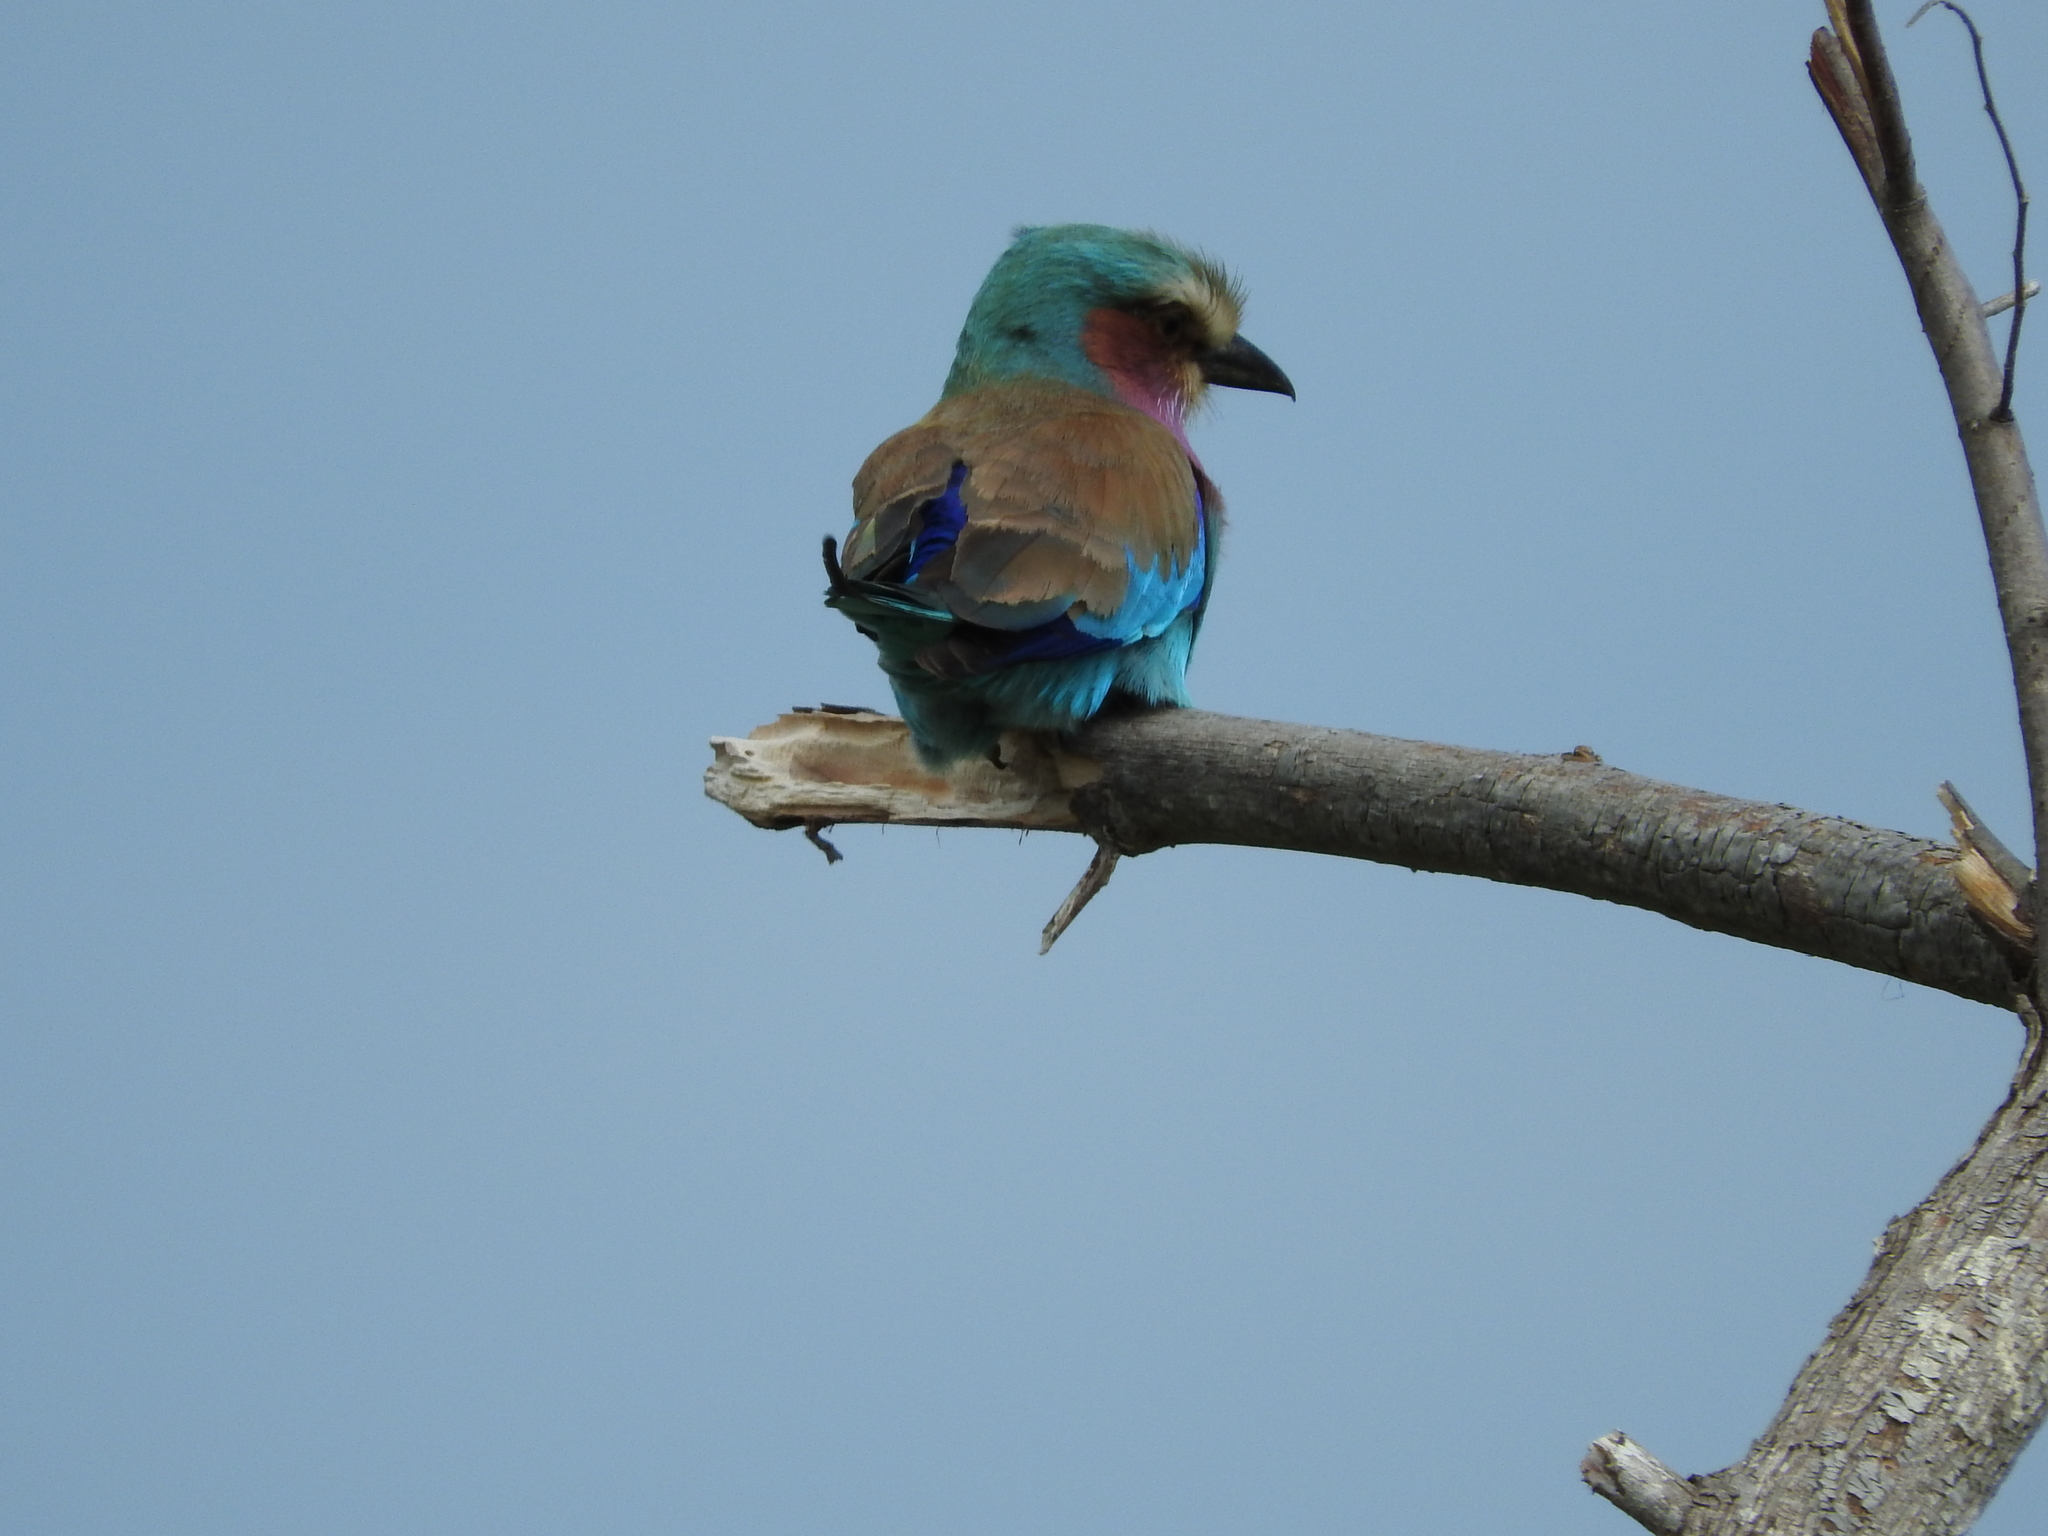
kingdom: Animalia
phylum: Chordata
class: Aves
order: Coraciiformes
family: Coraciidae
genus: Coracias
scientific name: Coracias caudatus
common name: Lilac-breasted roller
